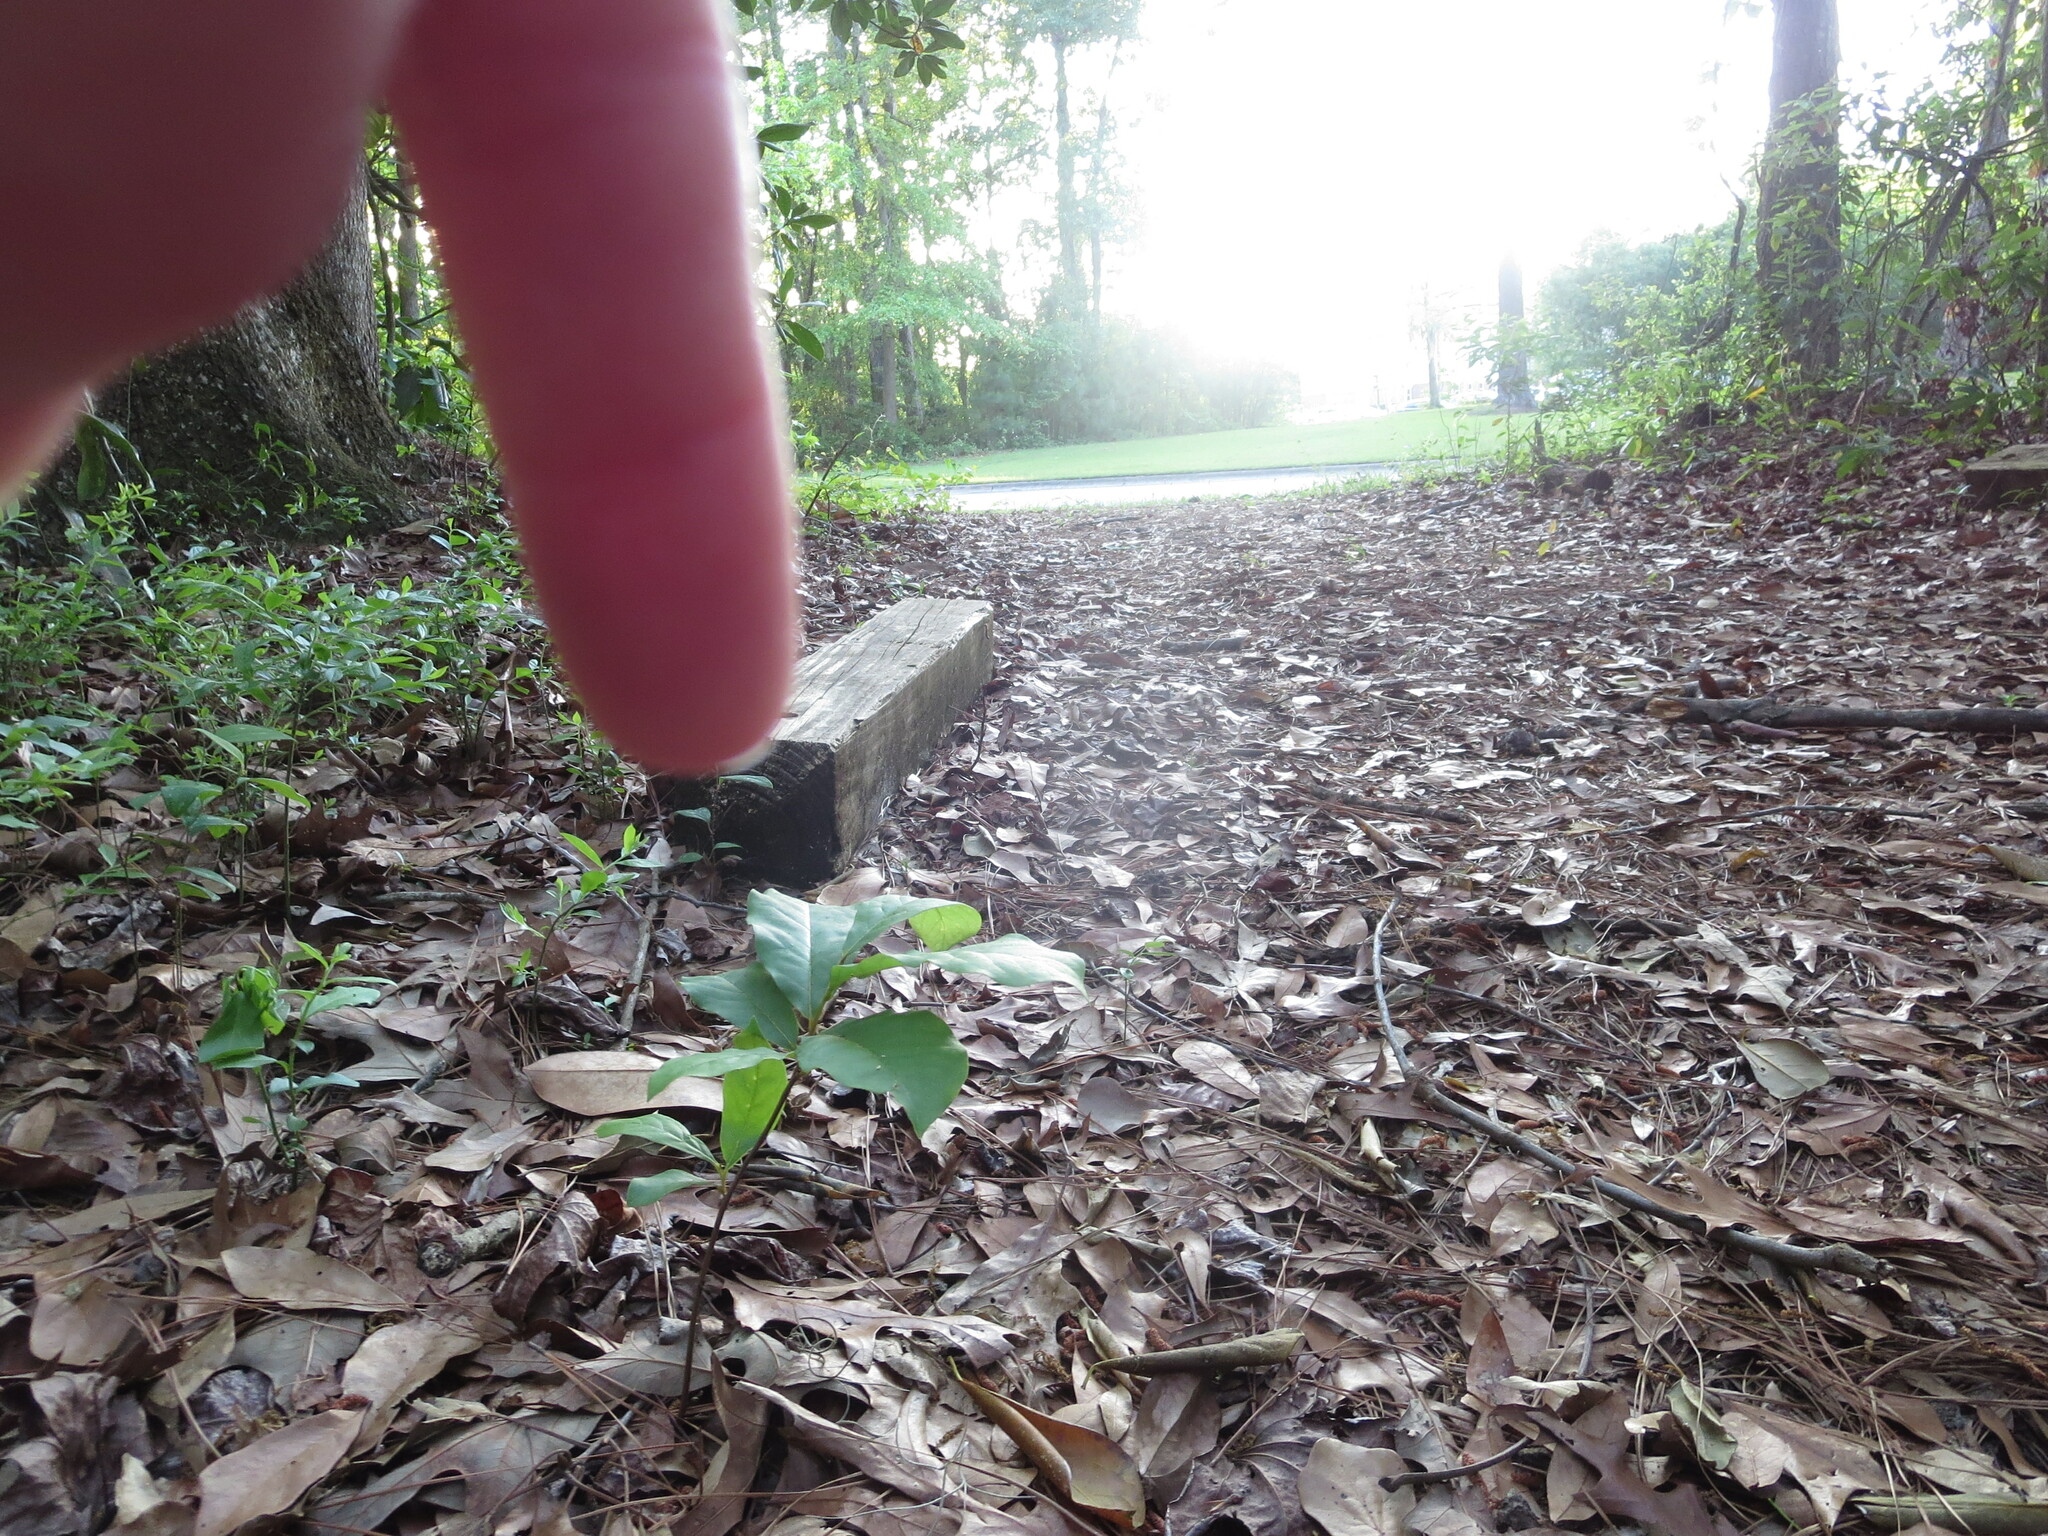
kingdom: Plantae
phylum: Tracheophyta
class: Magnoliopsida
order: Magnoliales
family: Annonaceae
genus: Asimina
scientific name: Asimina parviflora
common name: Dwarf pawpaw
